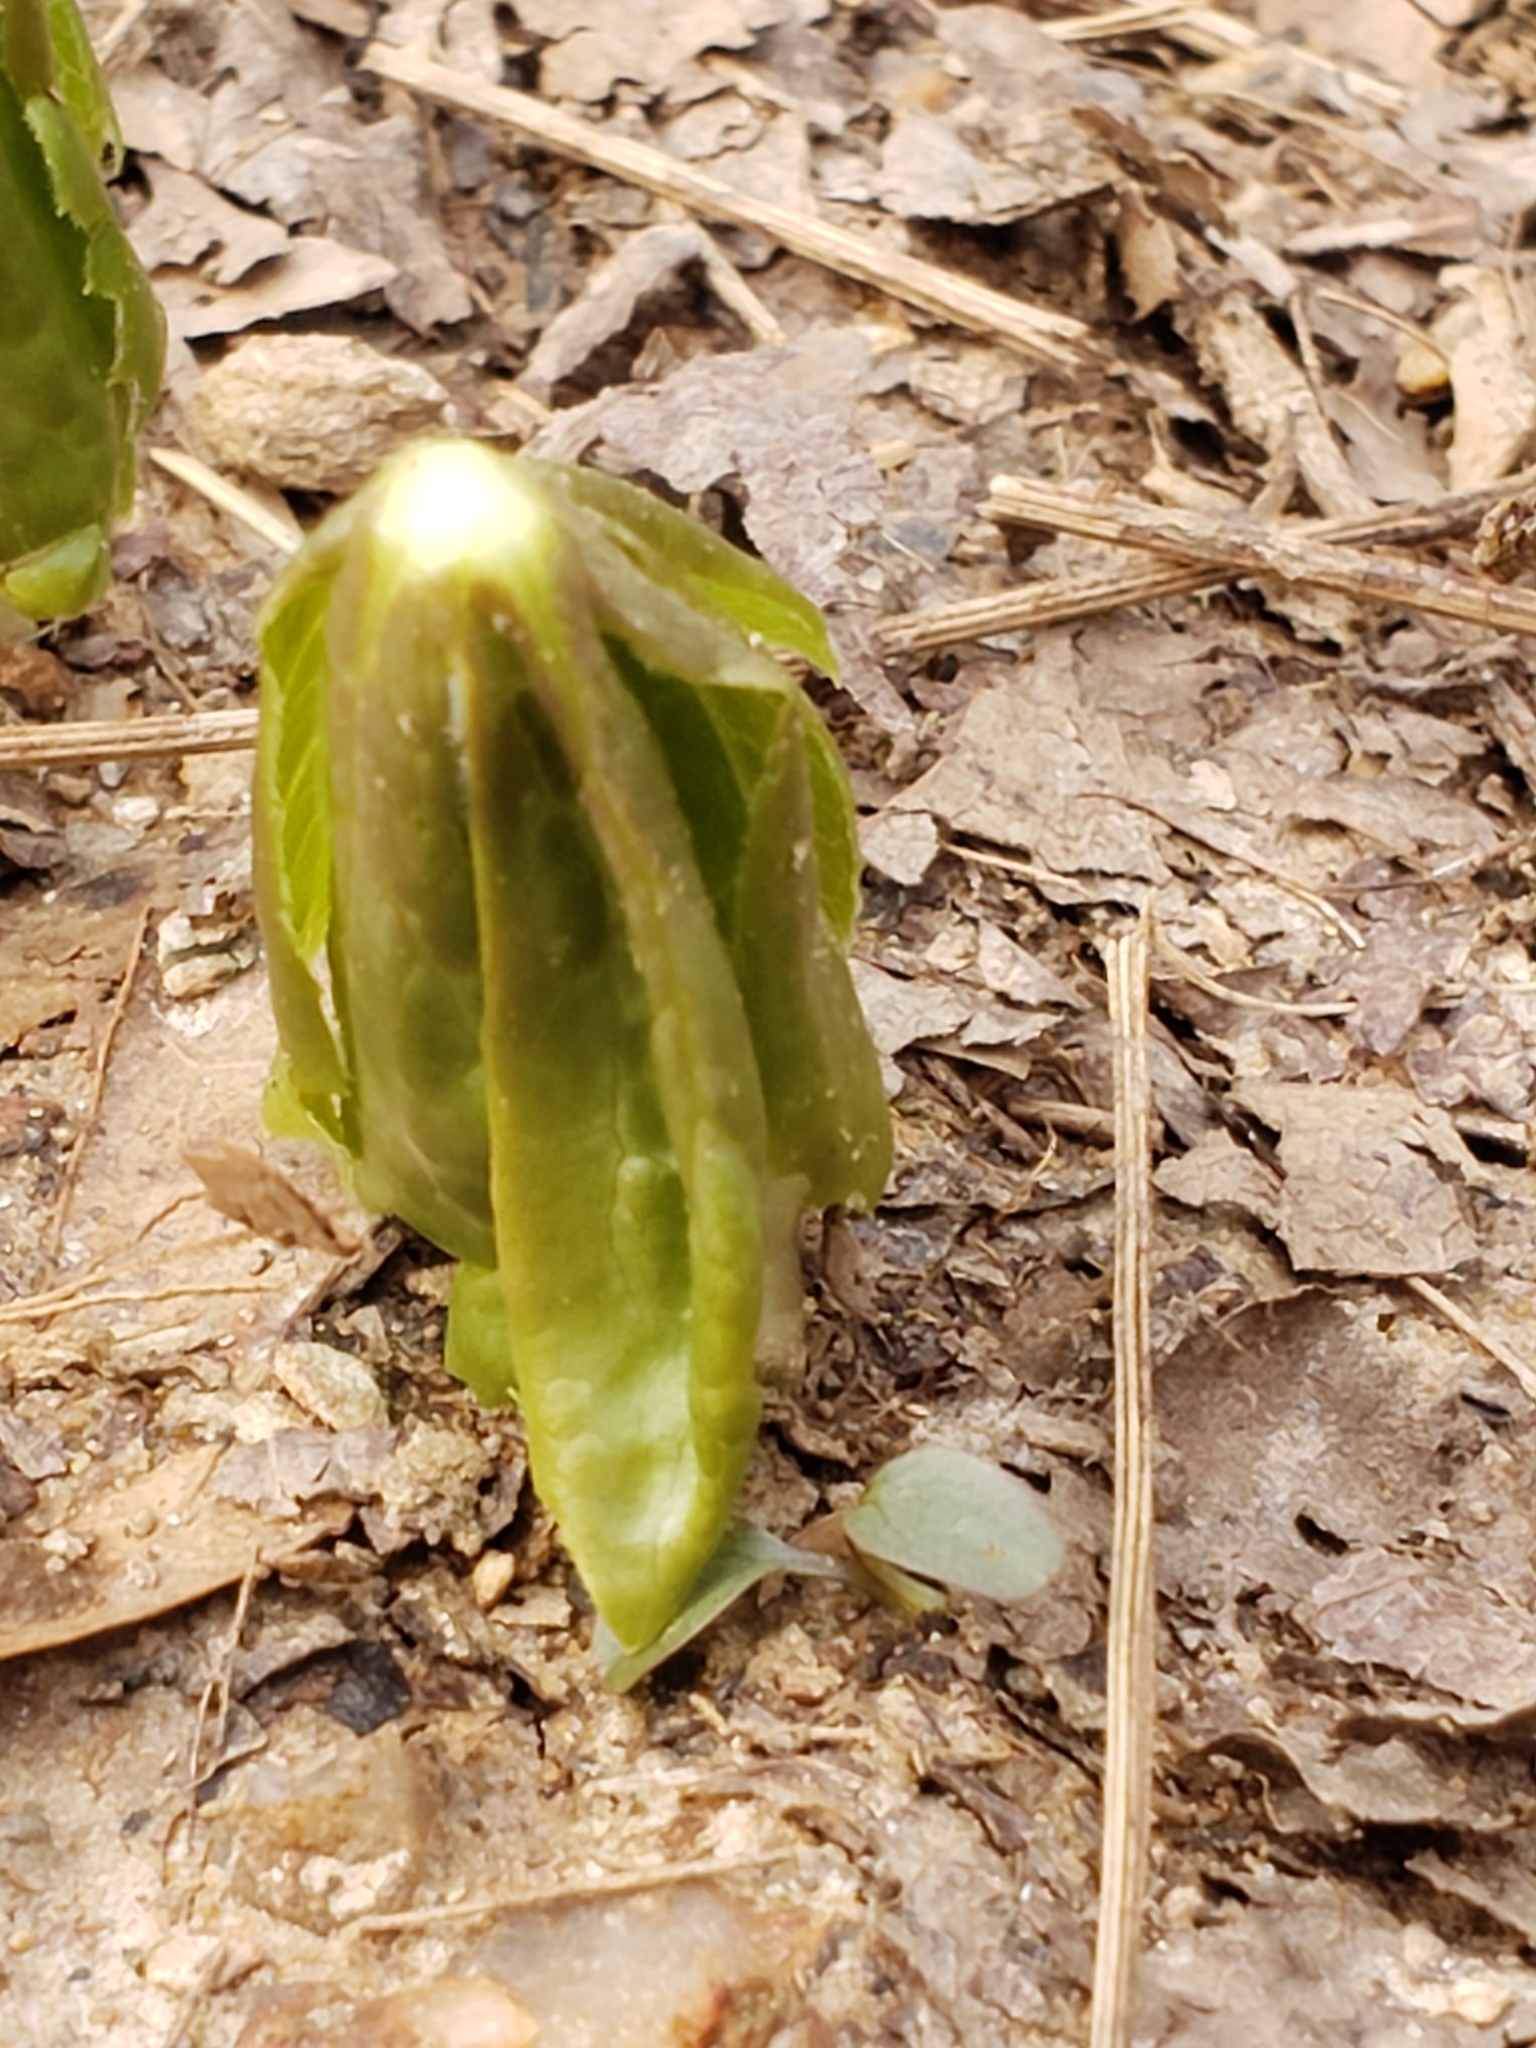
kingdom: Plantae
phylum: Tracheophyta
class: Magnoliopsida
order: Ranunculales
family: Berberidaceae
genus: Podophyllum
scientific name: Podophyllum peltatum
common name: Wild mandrake
